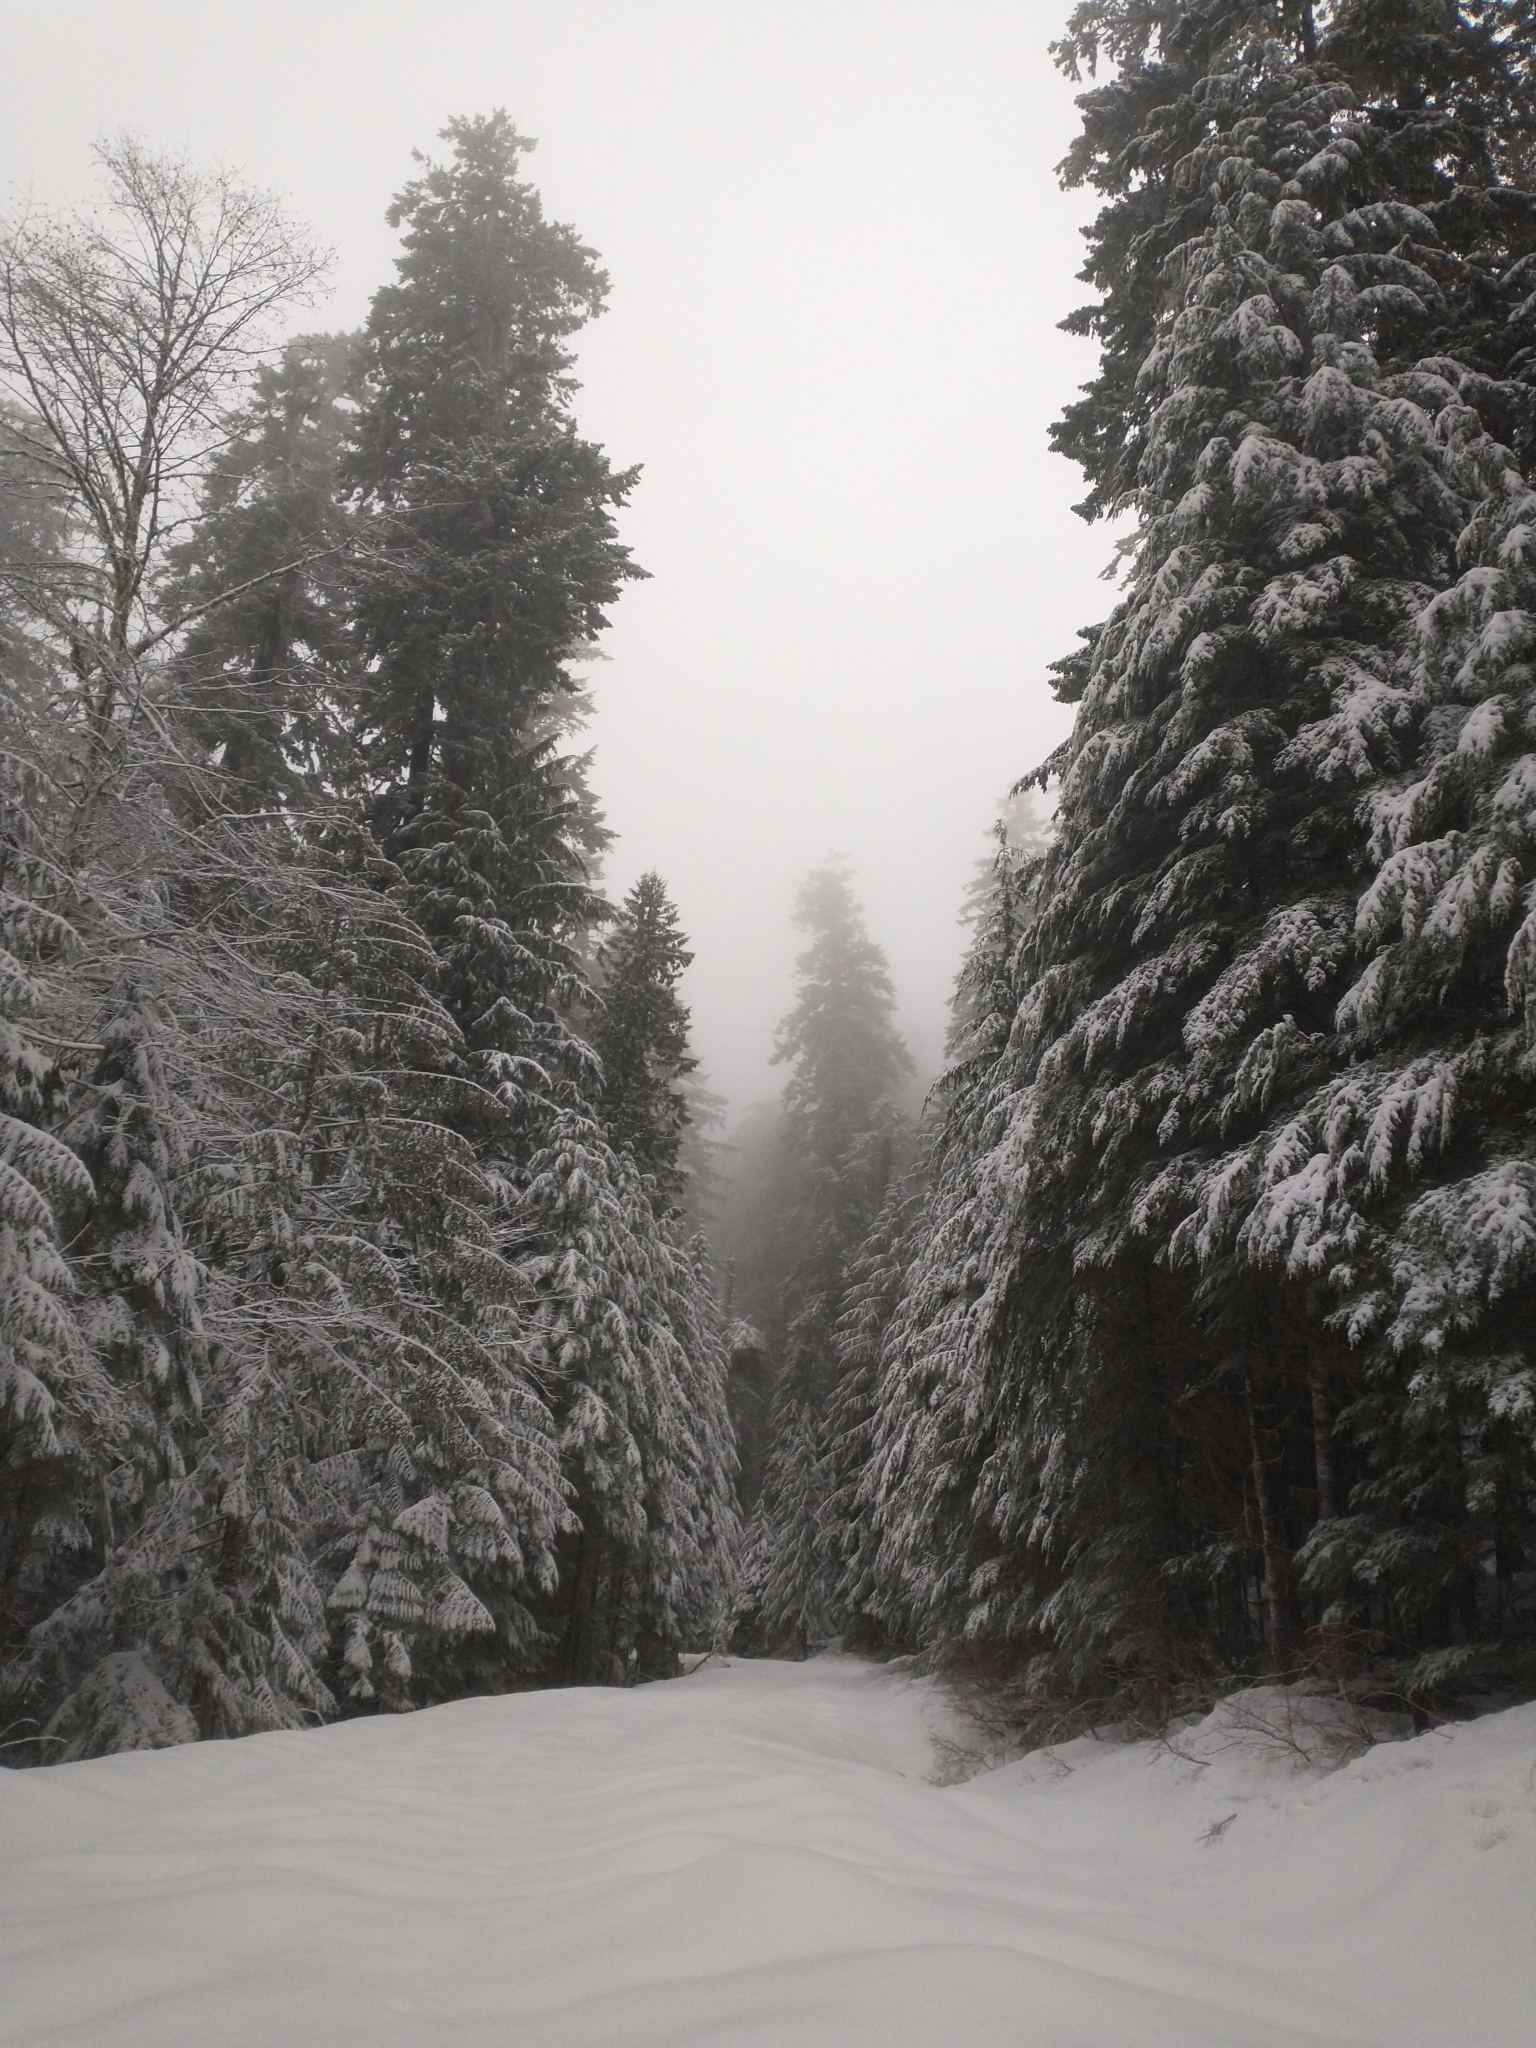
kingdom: Plantae
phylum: Tracheophyta
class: Pinopsida
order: Pinales
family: Pinaceae
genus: Pseudotsuga
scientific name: Pseudotsuga menziesii
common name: Douglas fir
